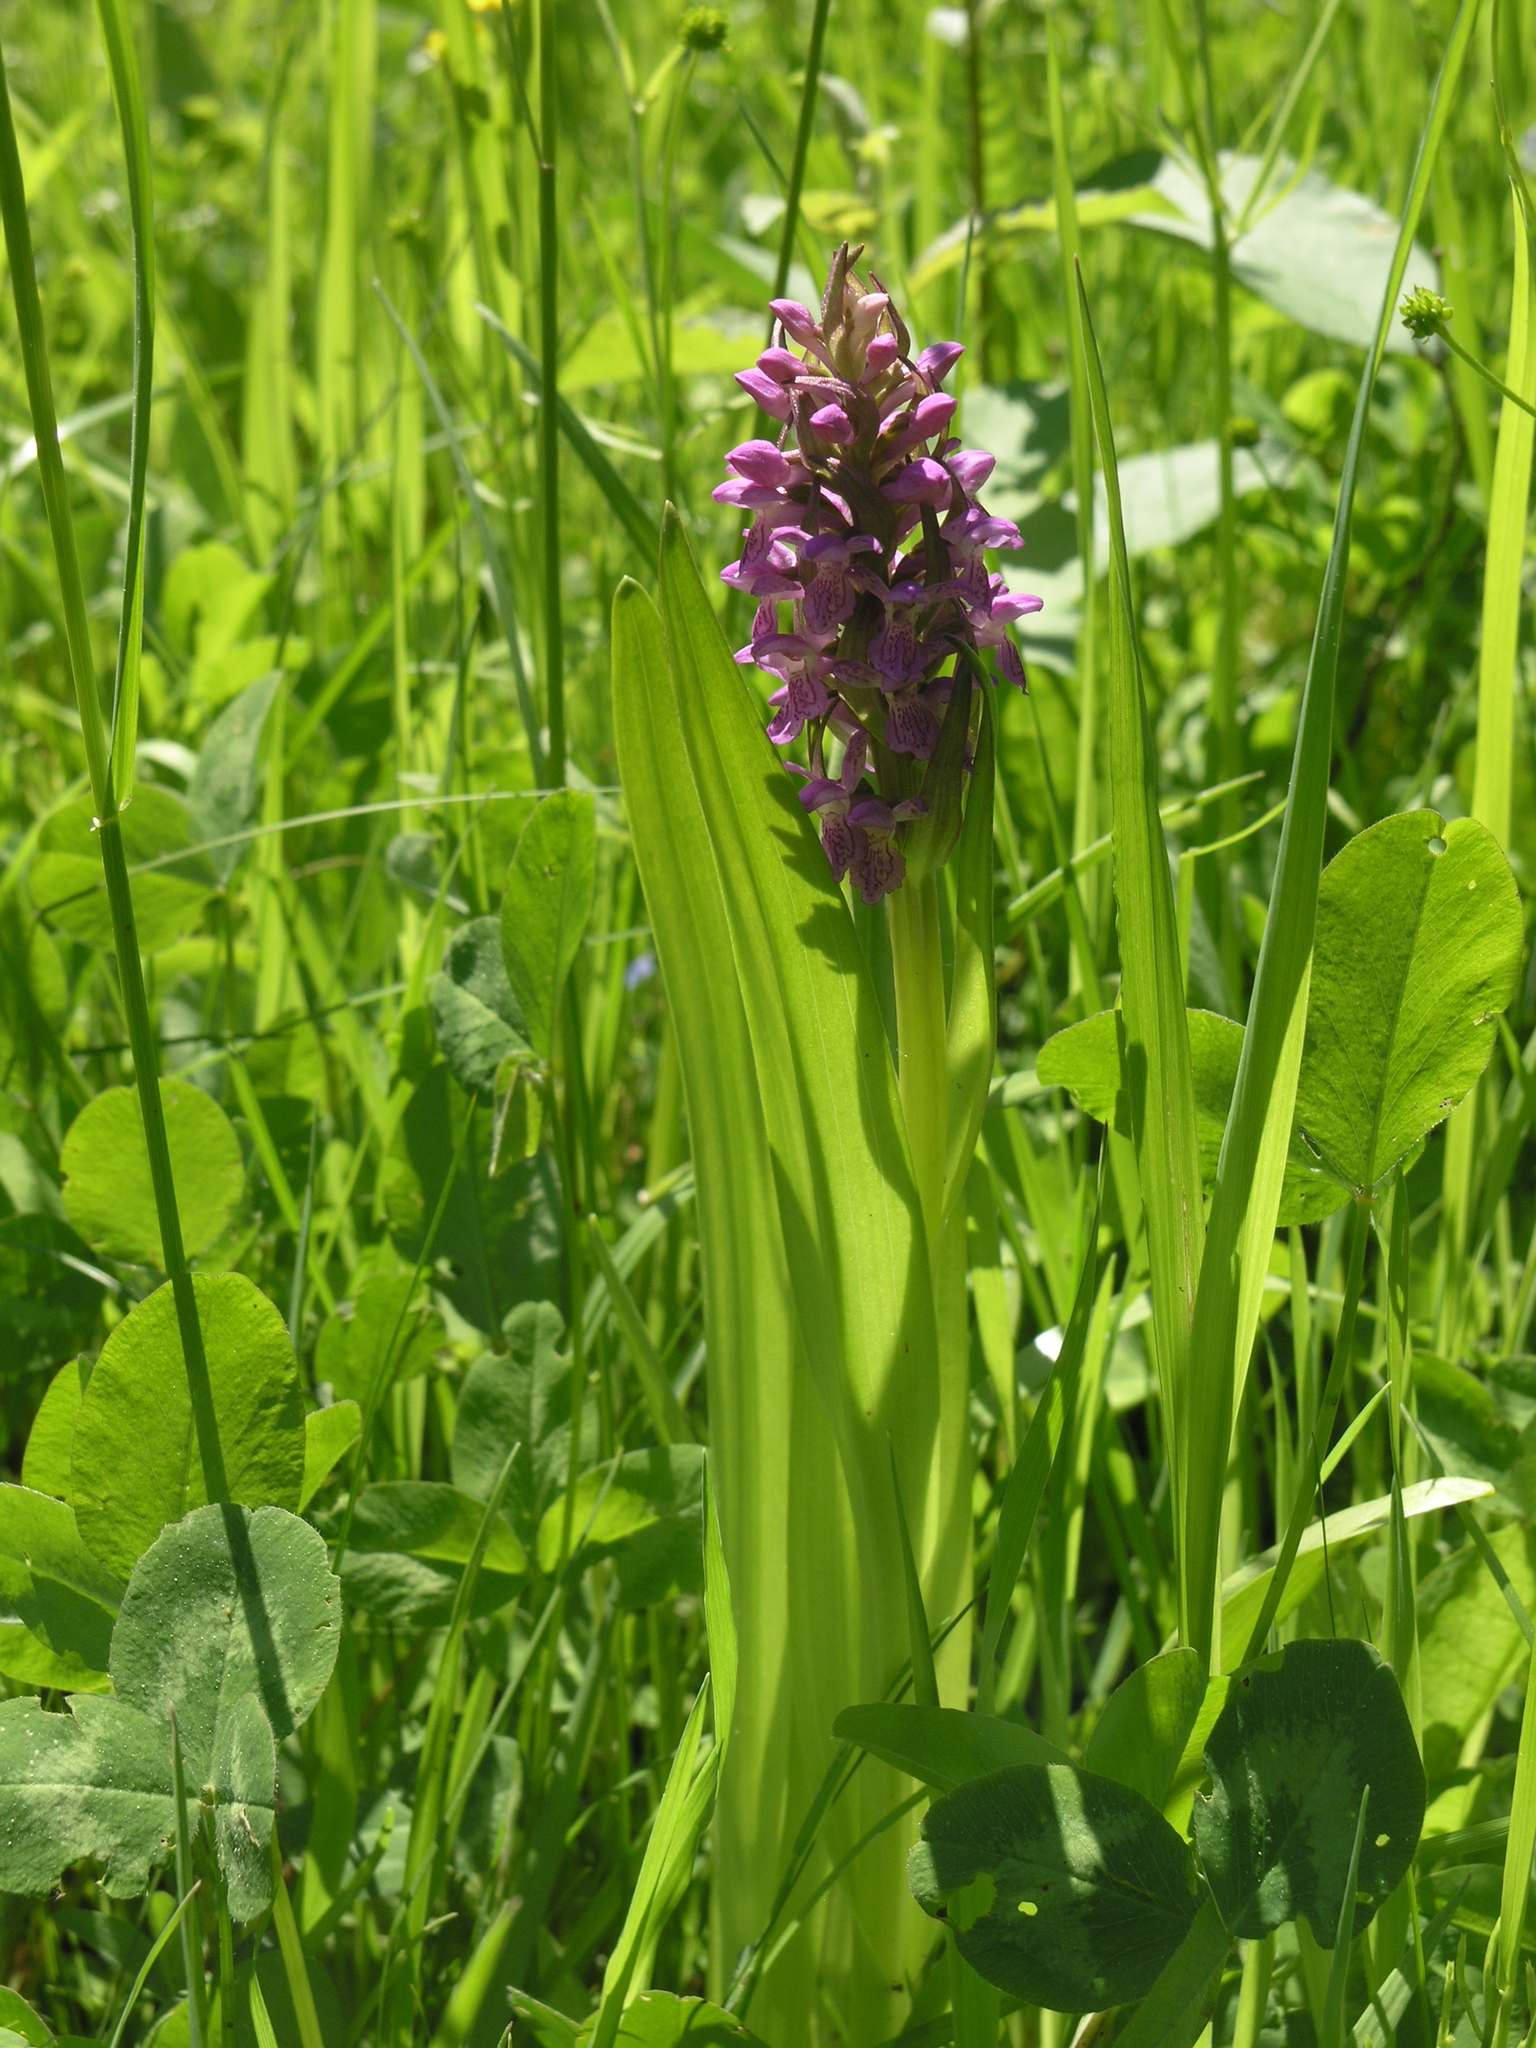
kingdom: Plantae
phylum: Tracheophyta
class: Liliopsida
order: Asparagales
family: Orchidaceae
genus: Dactylorhiza
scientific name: Dactylorhiza incarnata
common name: Early marsh-orchid
